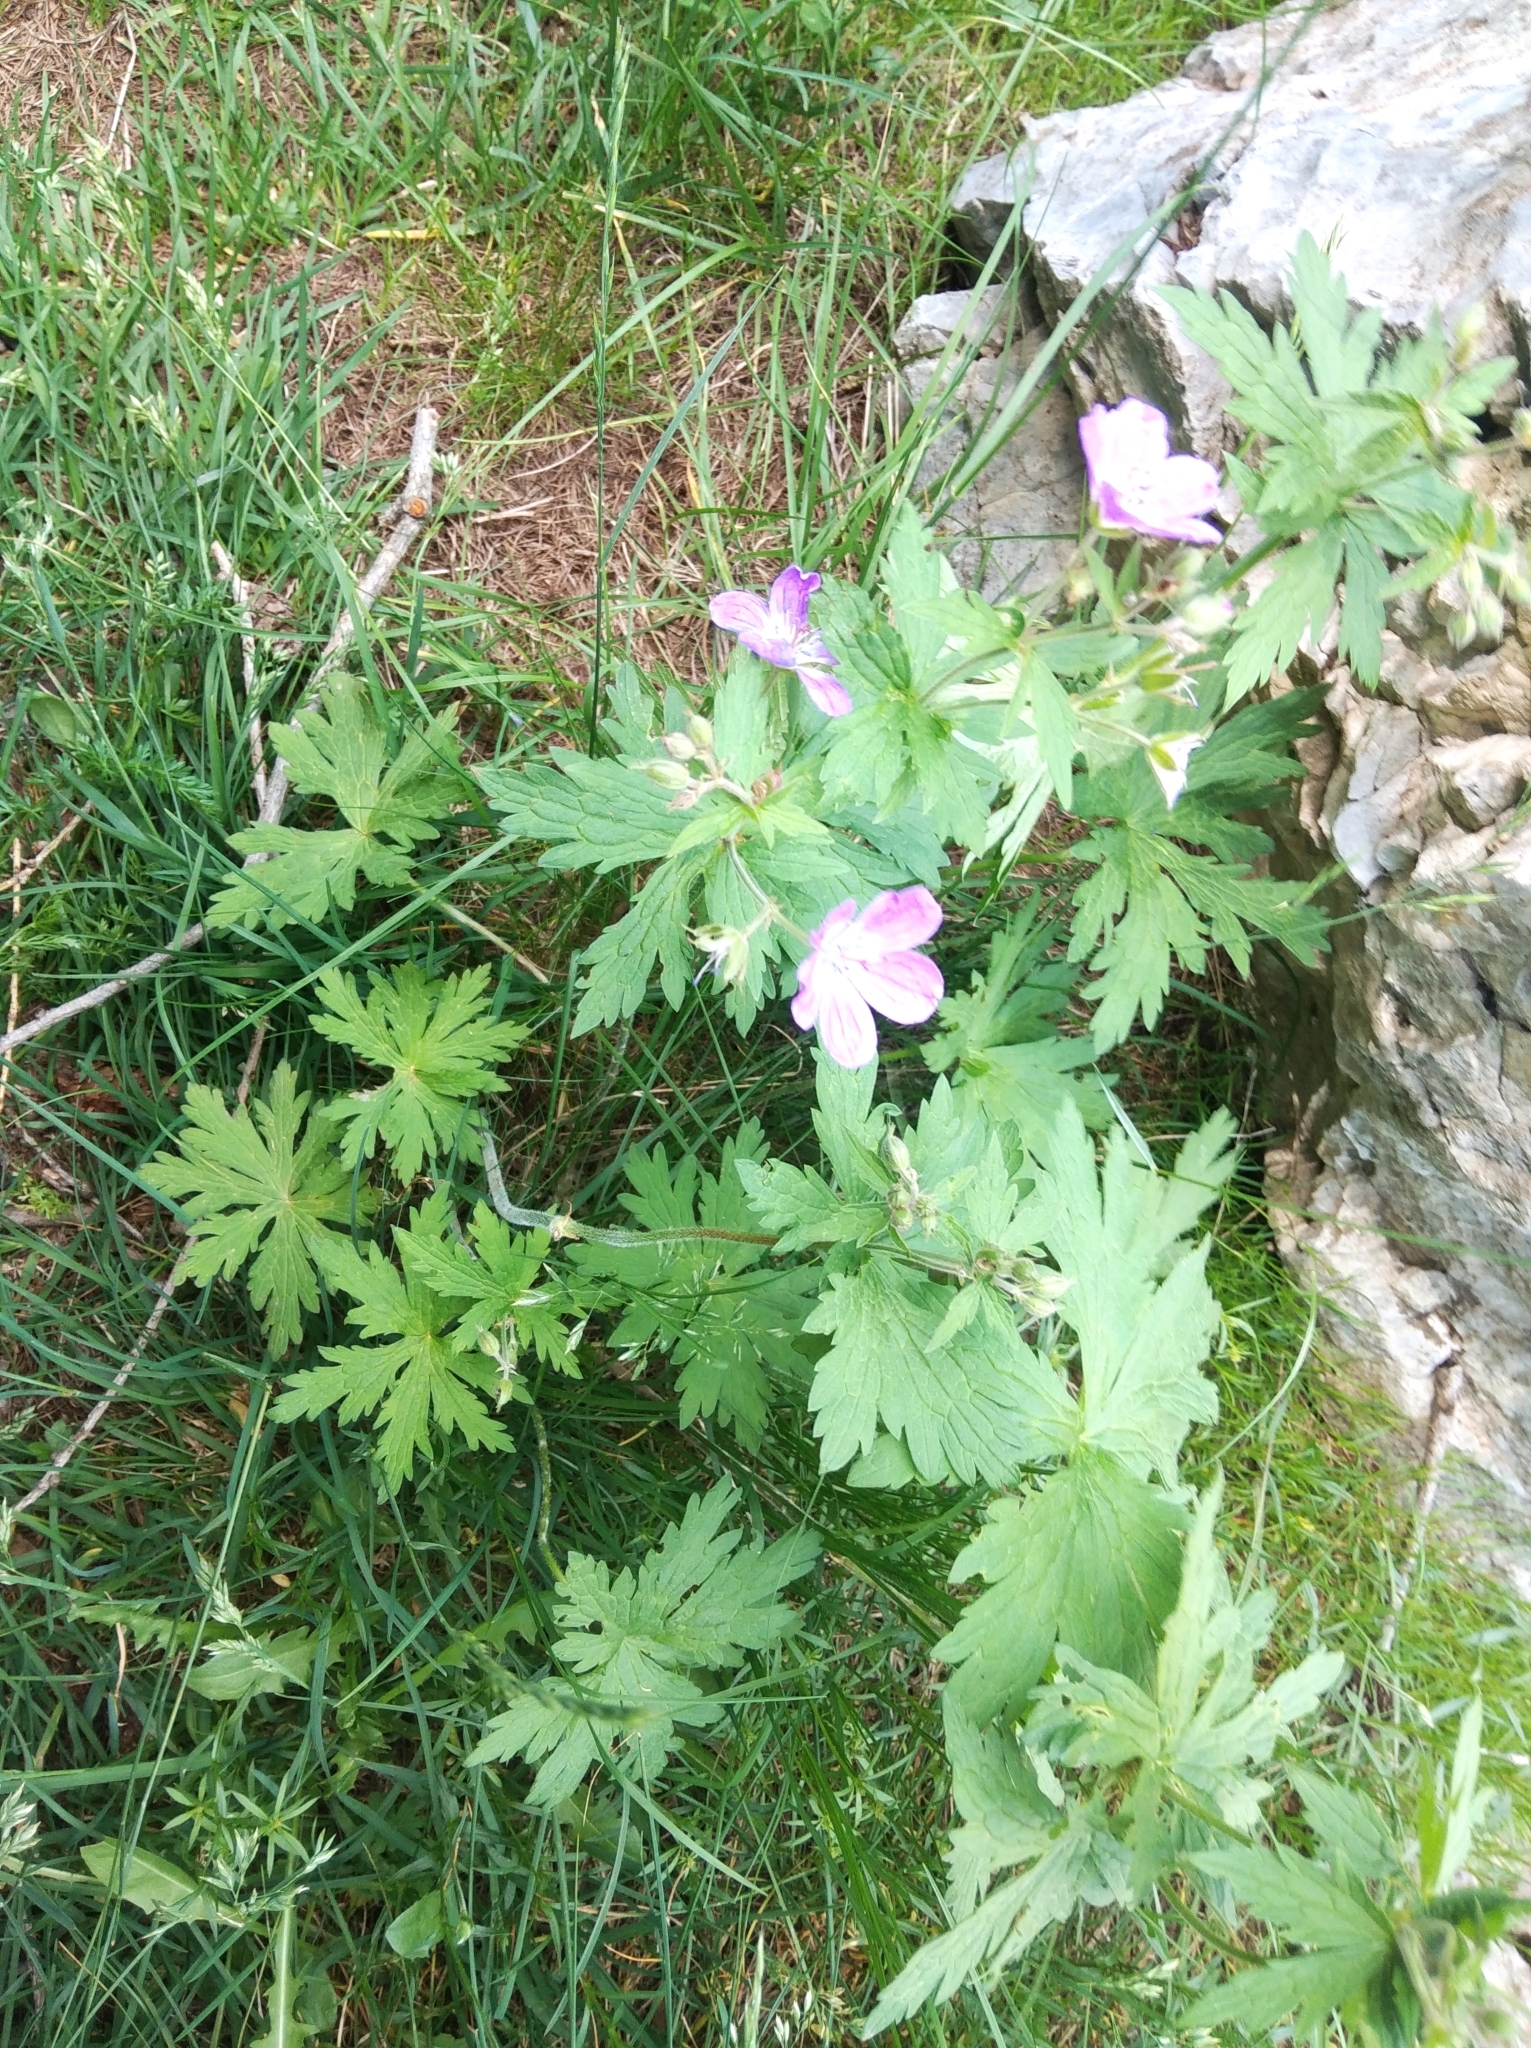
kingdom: Plantae
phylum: Tracheophyta
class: Magnoliopsida
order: Geraniales
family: Geraniaceae
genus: Geranium
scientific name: Geranium sylvaticum
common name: Wood crane's-bill
